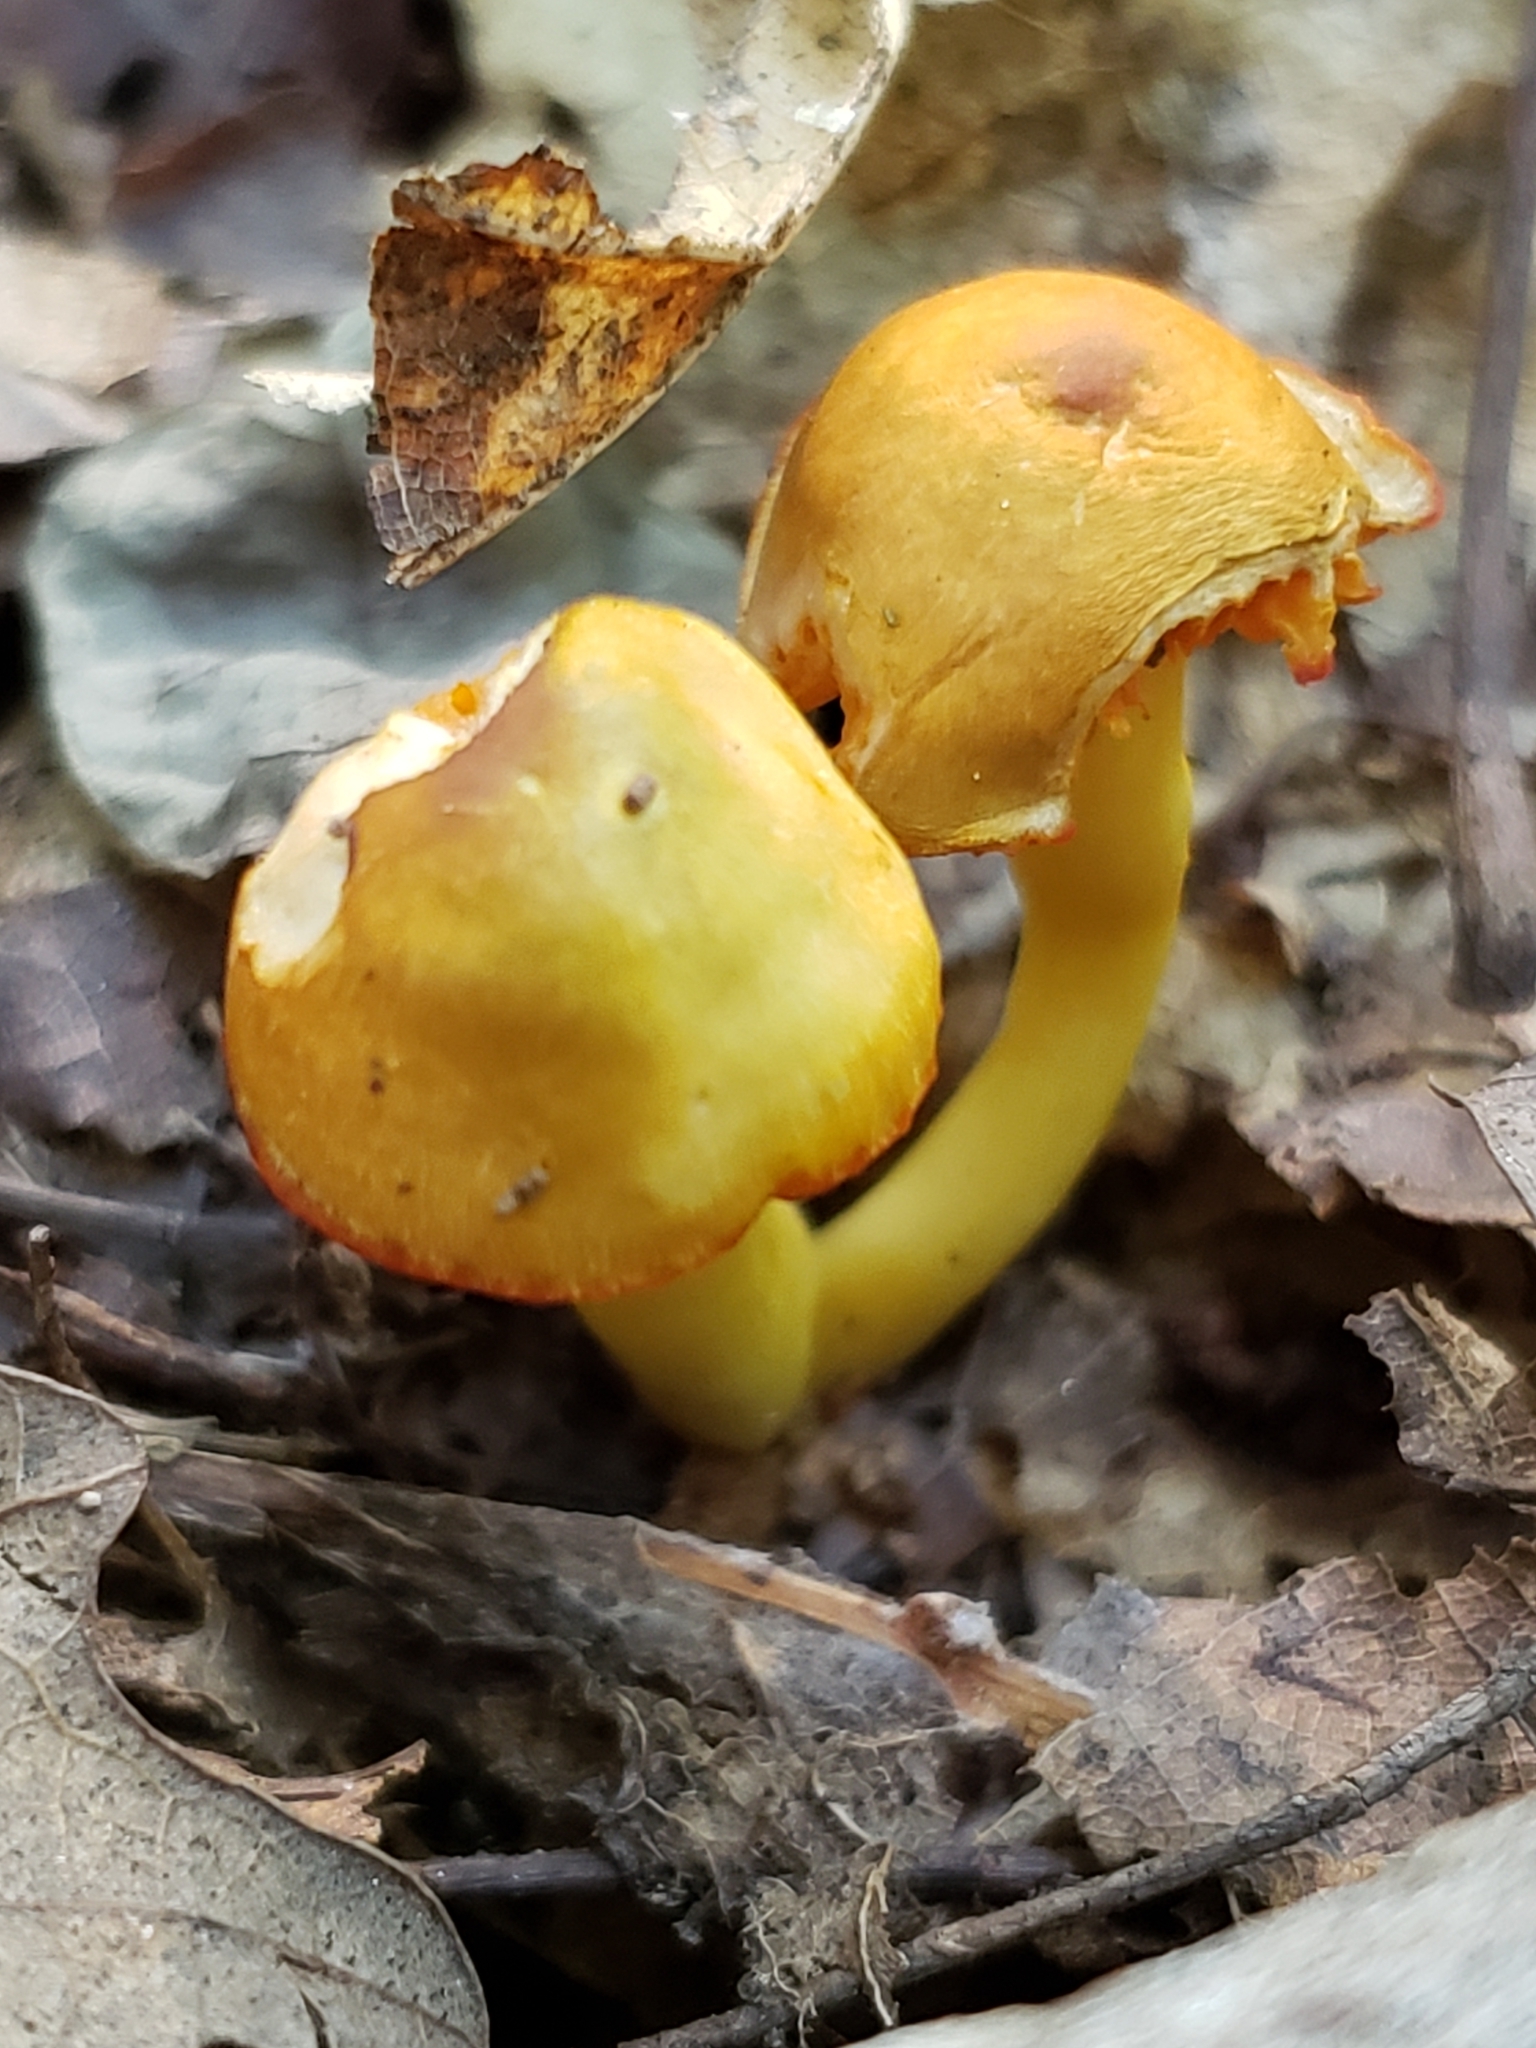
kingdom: Fungi
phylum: Basidiomycota
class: Agaricomycetes
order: Agaricales
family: Hygrophoraceae
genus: Humidicutis
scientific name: Humidicutis marginata
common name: Orange gilled waxcap
